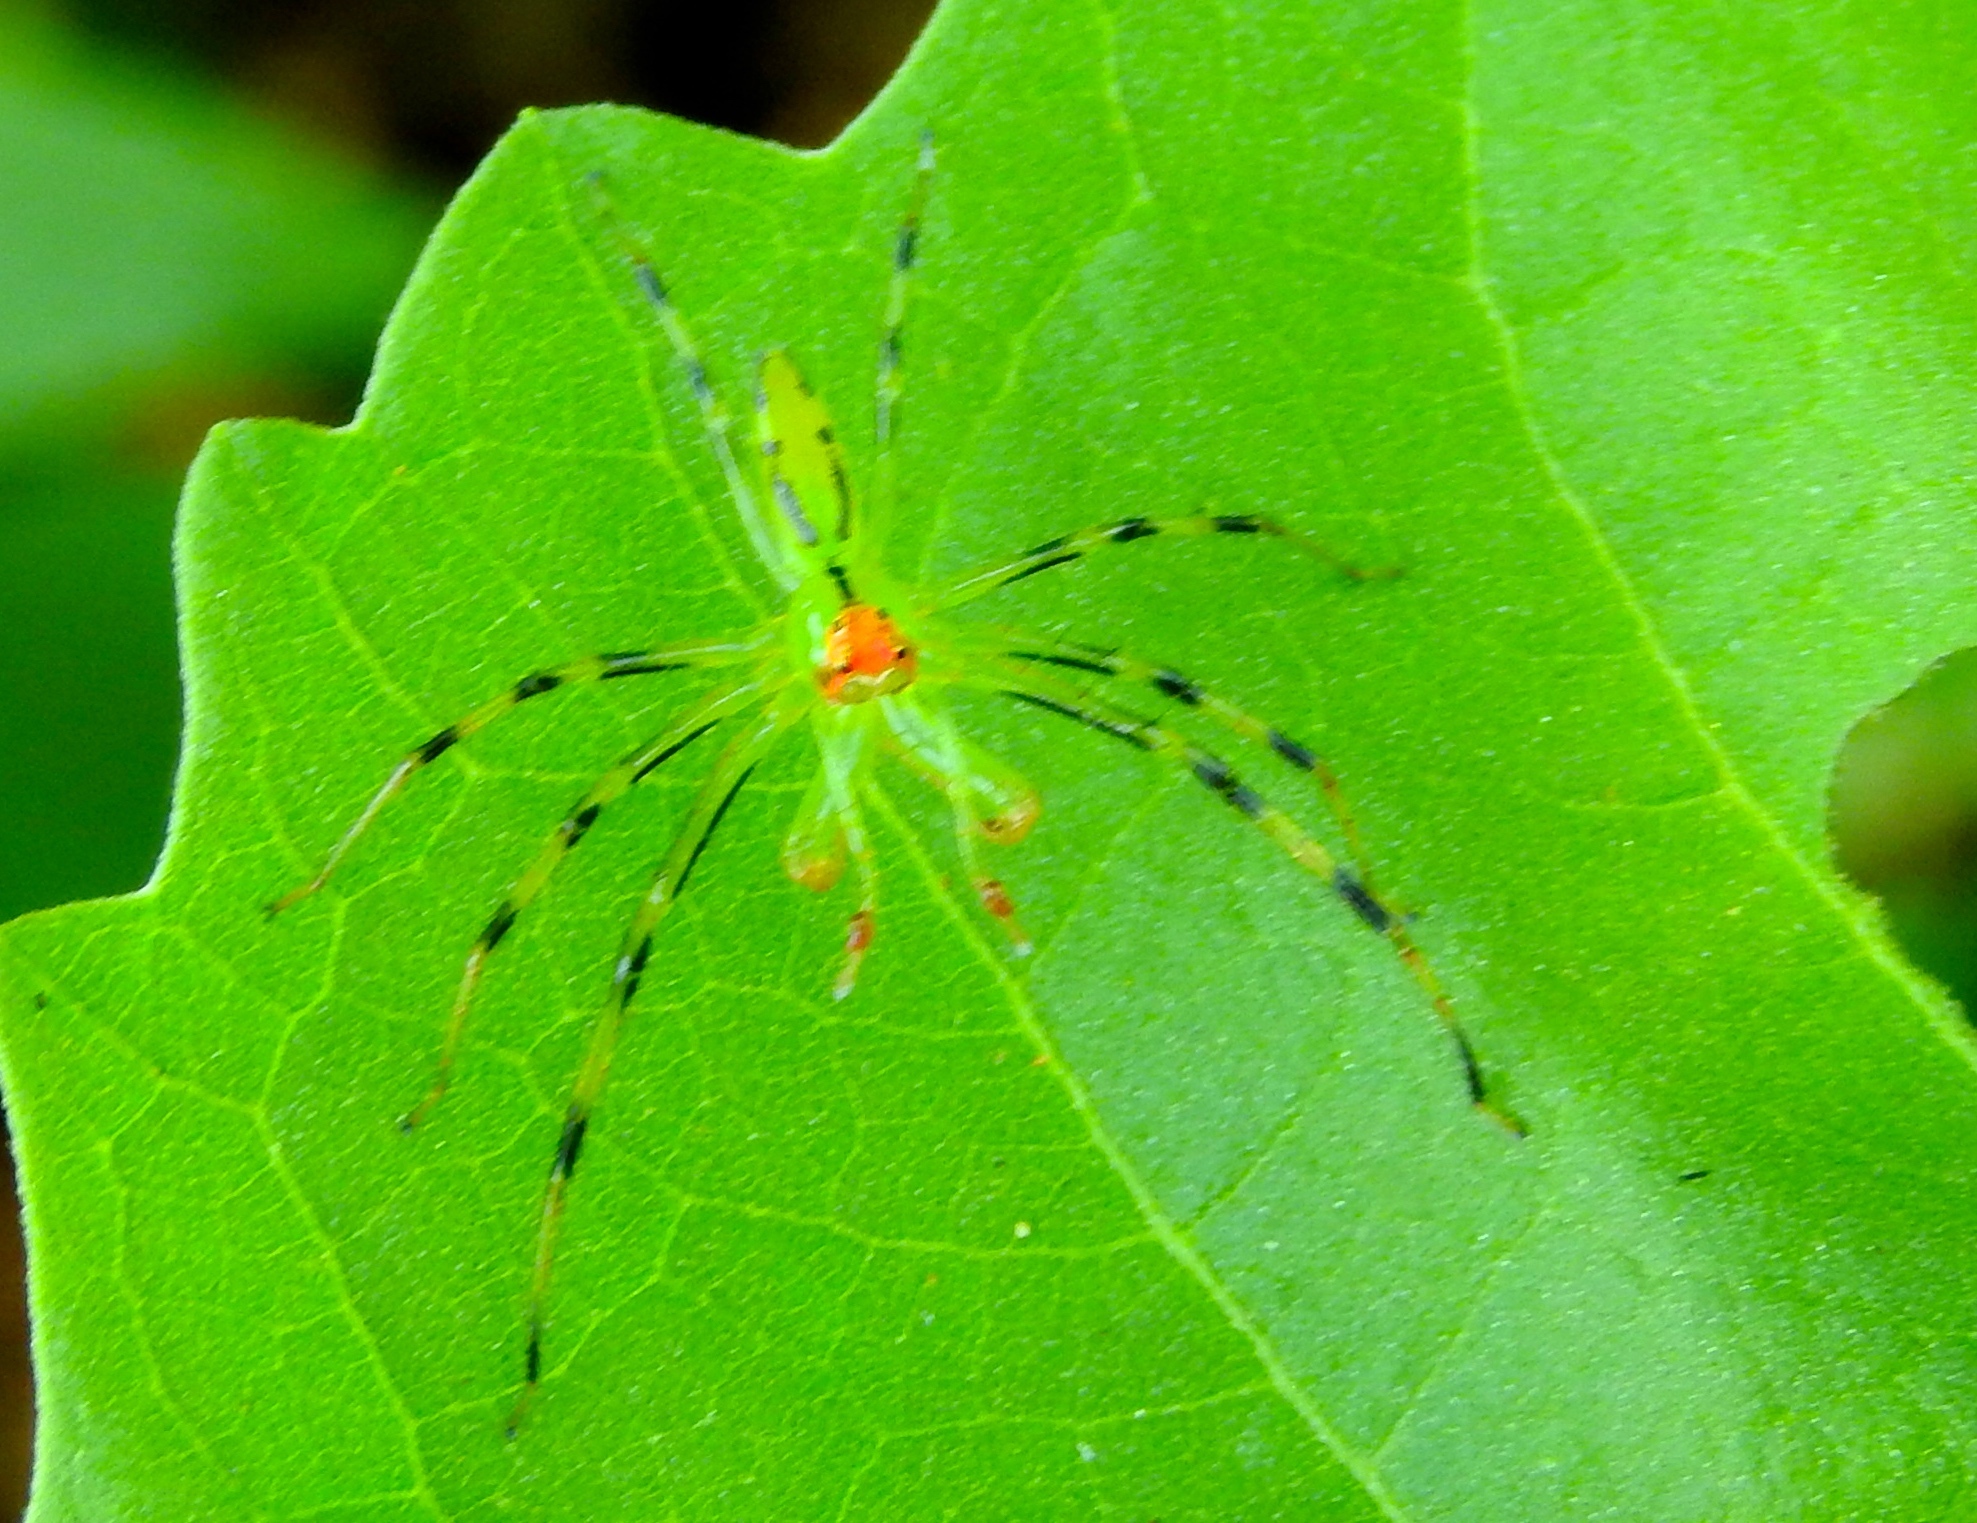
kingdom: Animalia
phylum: Arthropoda
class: Arachnida
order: Araneae
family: Salticidae
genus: Lyssomanes
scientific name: Lyssomanes
